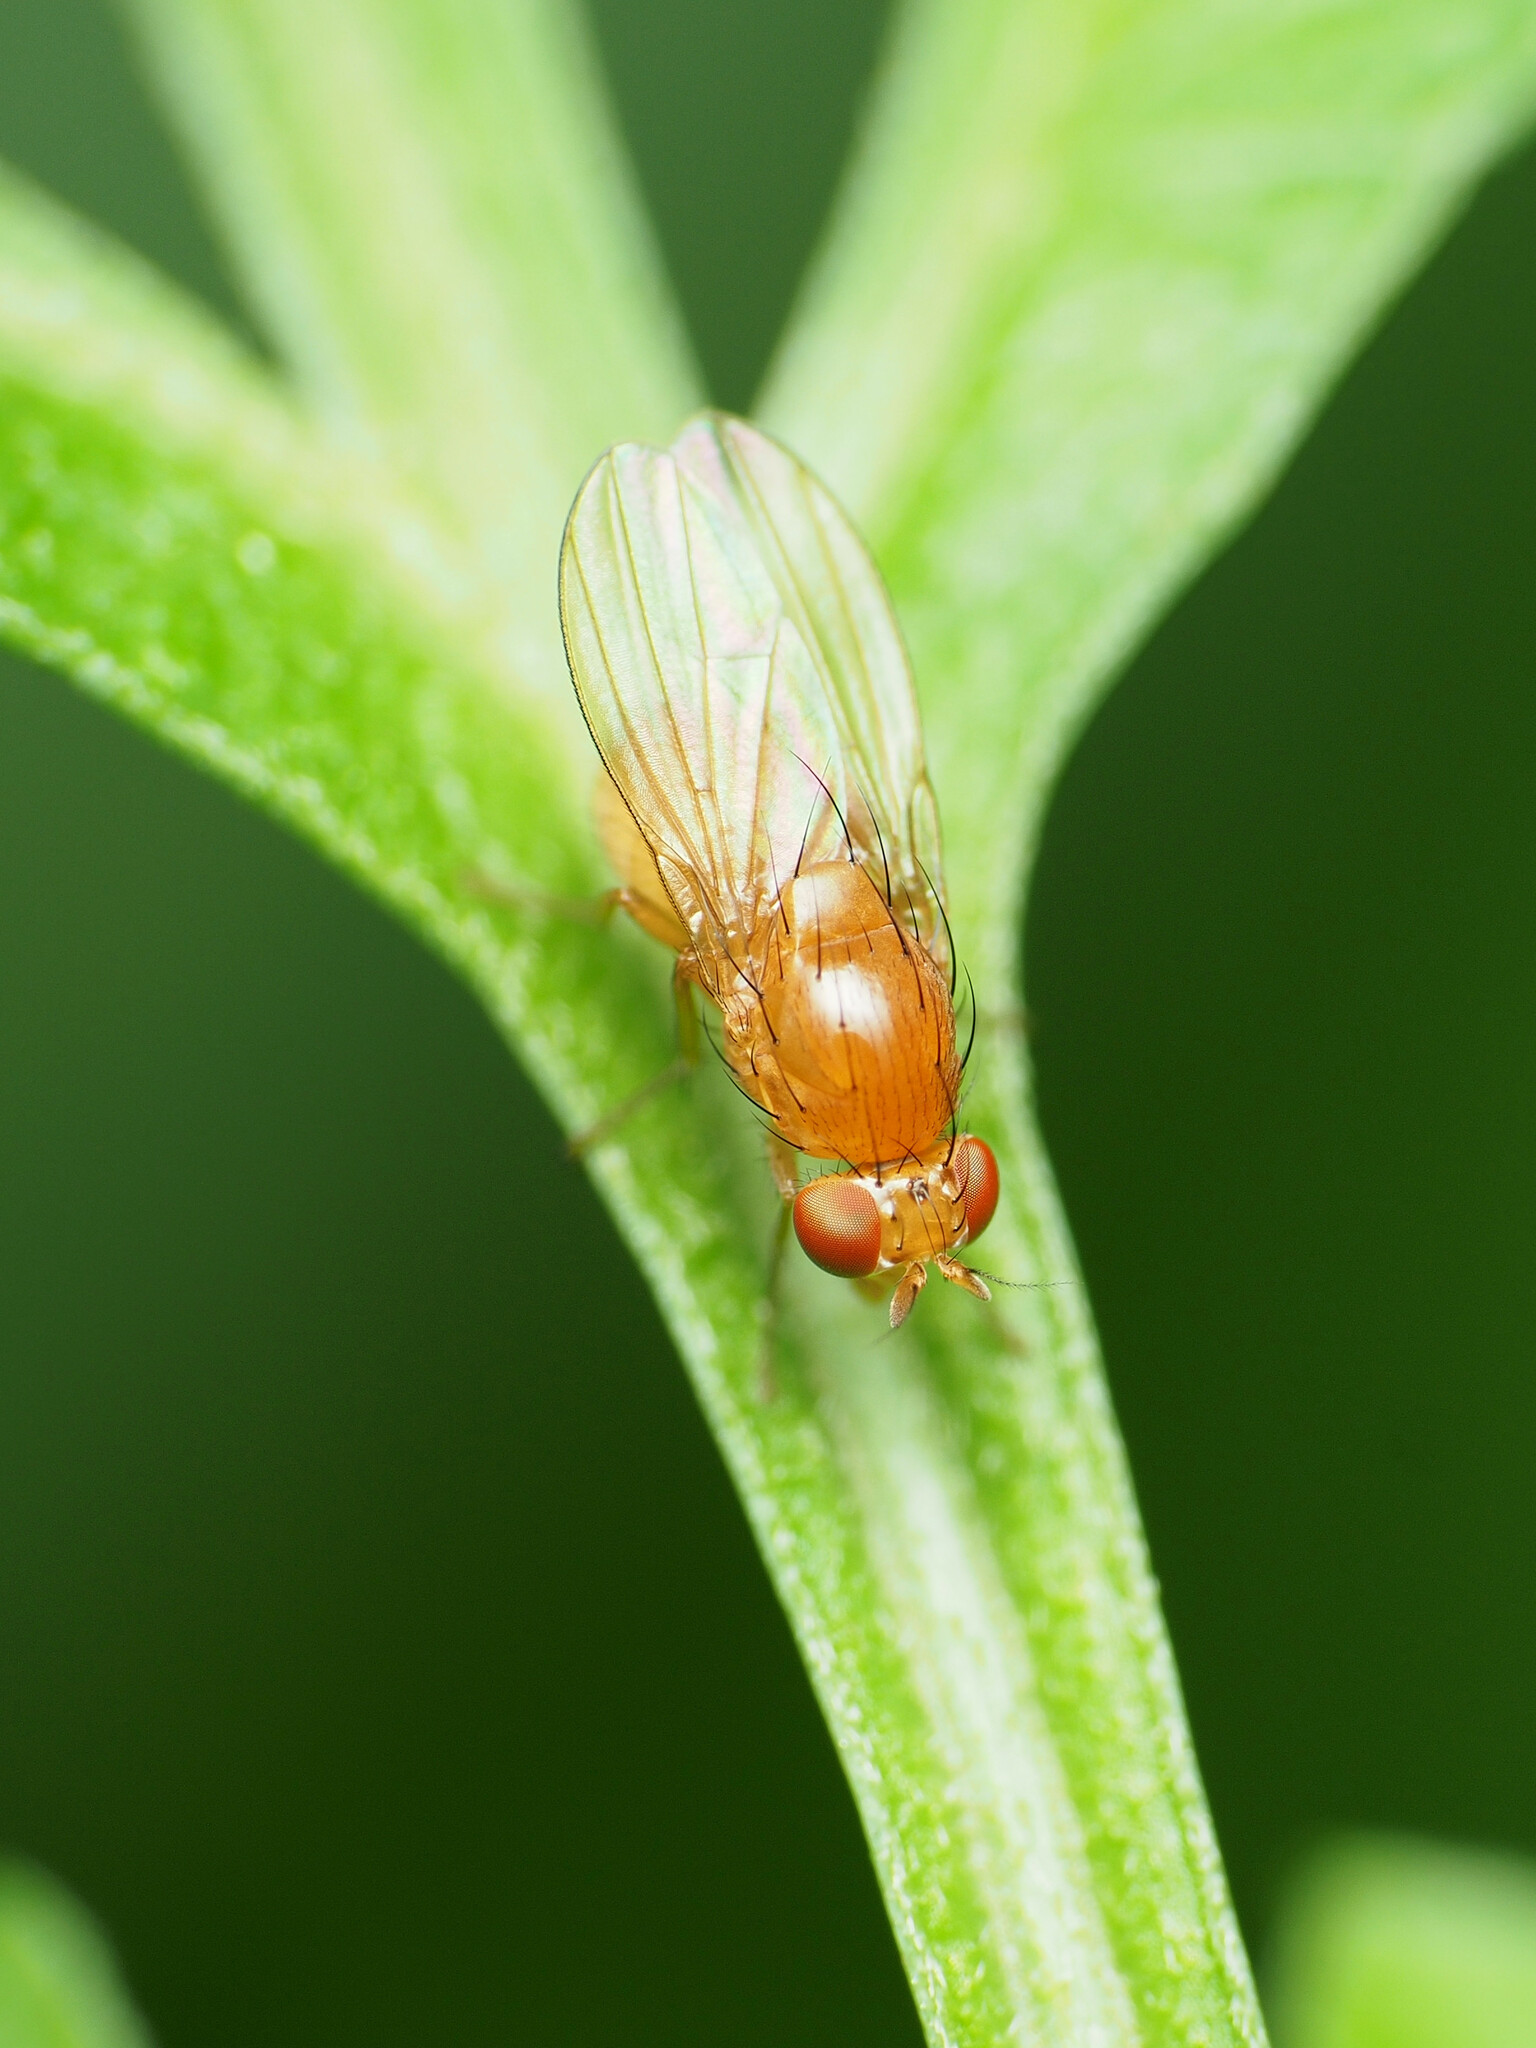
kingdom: Animalia
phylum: Arthropoda
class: Insecta
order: Diptera
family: Lauxaniidae
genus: Homoneura
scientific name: Homoneura unguiculata
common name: Beach fly
